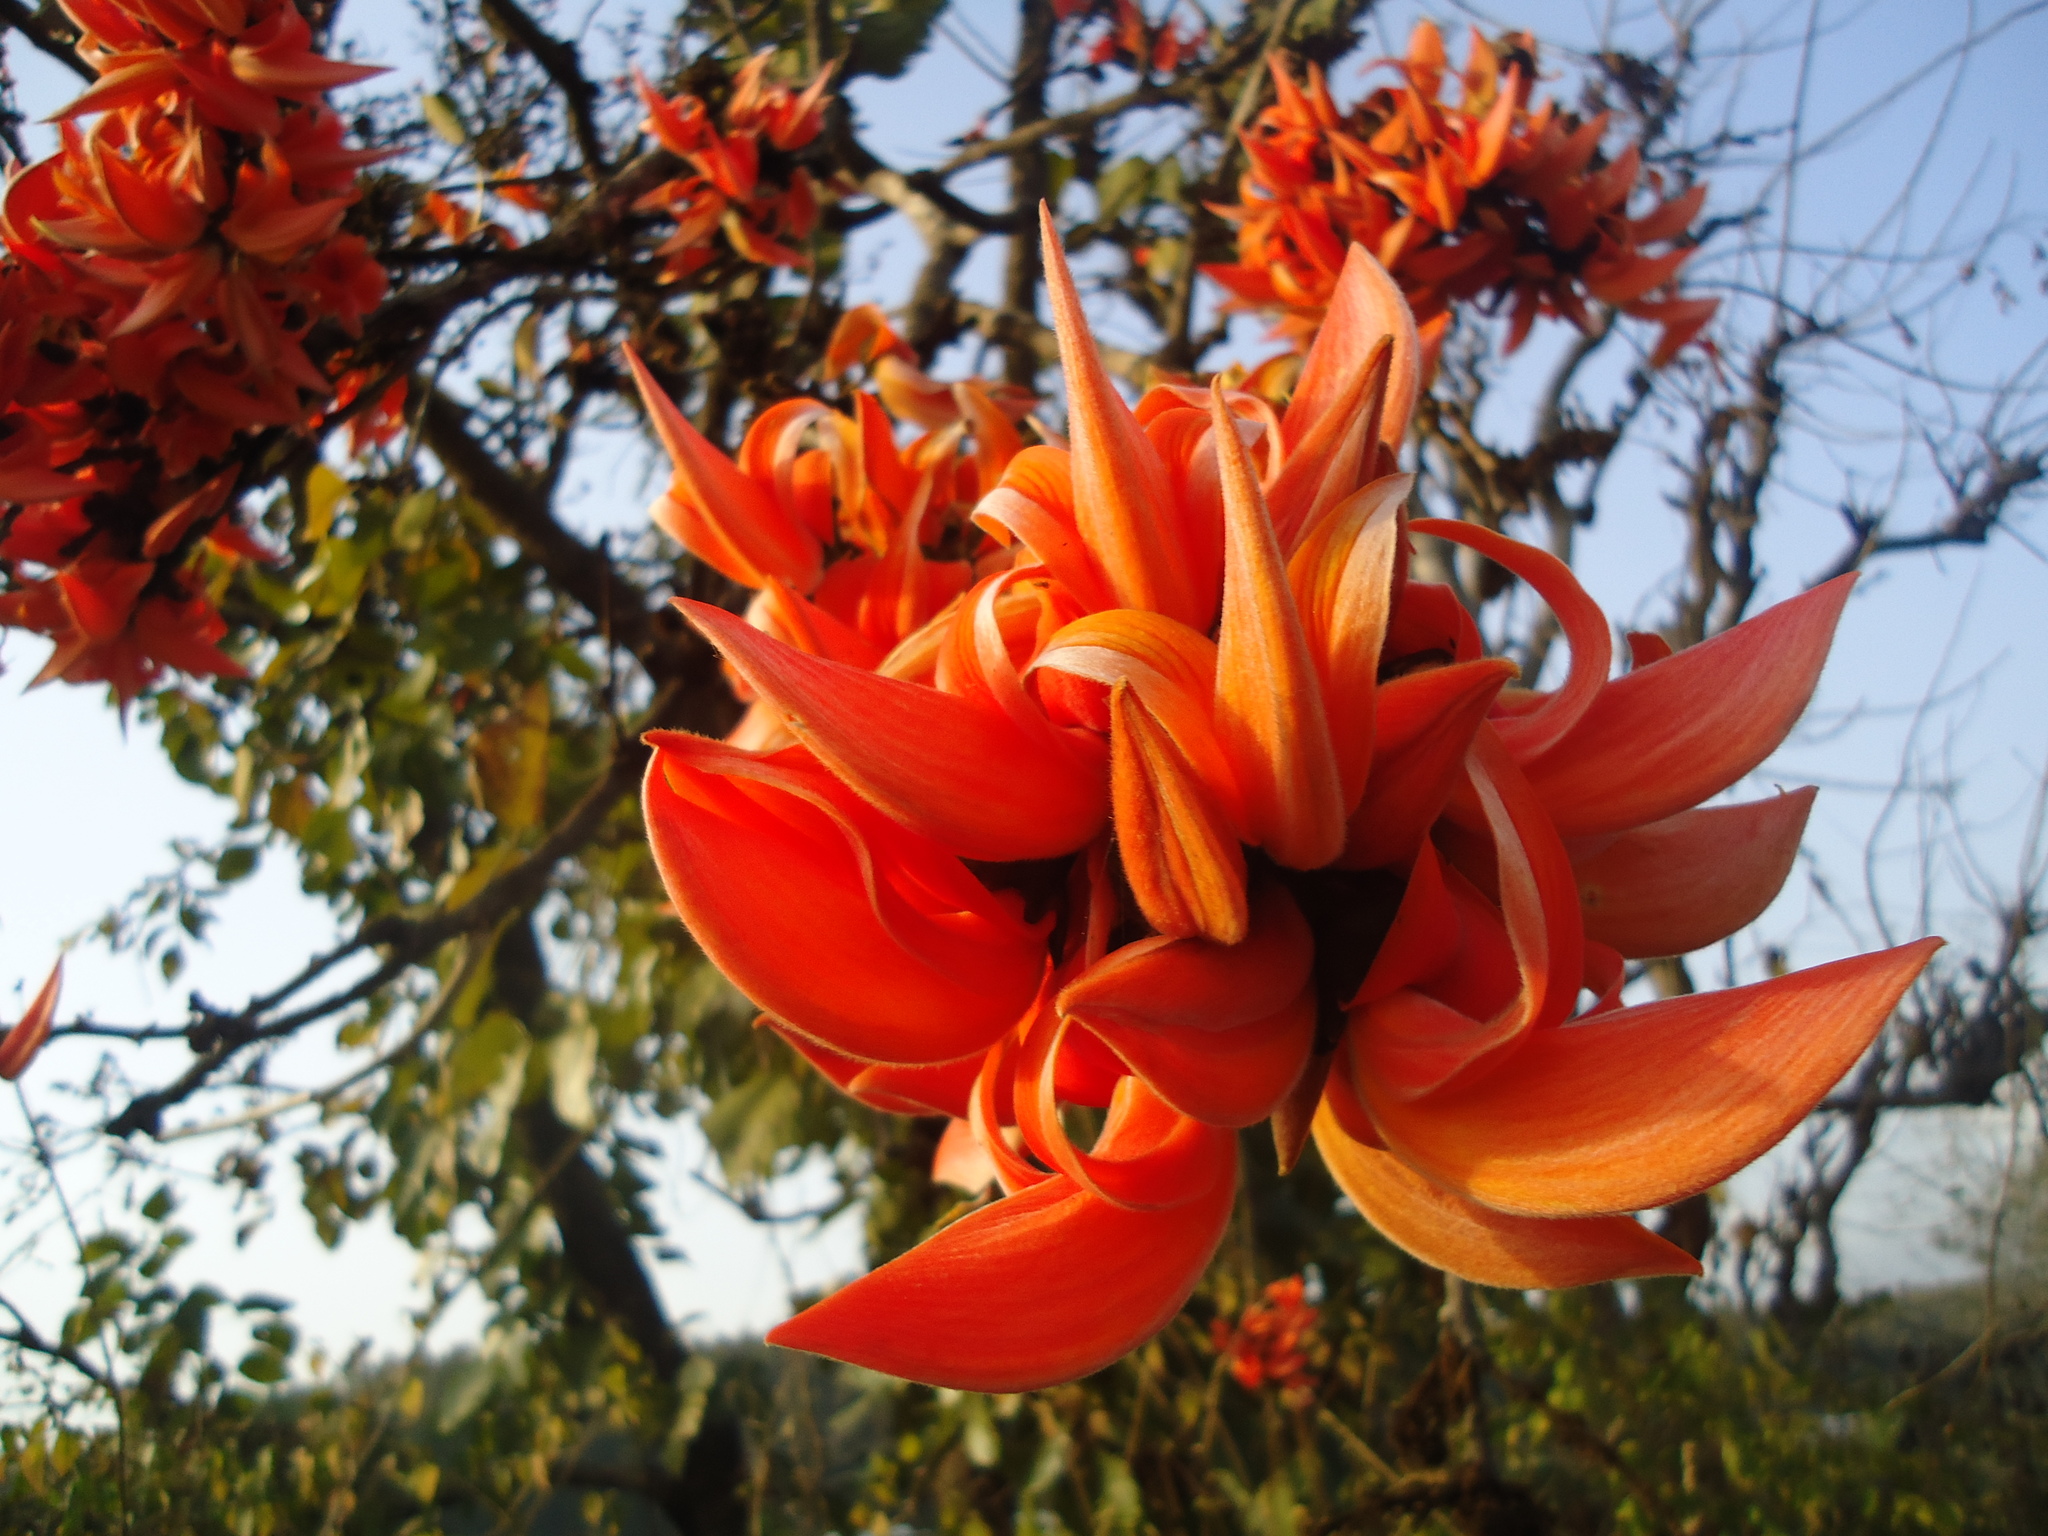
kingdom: Plantae
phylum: Tracheophyta
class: Magnoliopsida
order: Fabales
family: Fabaceae
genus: Butea
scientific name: Butea monosperma
